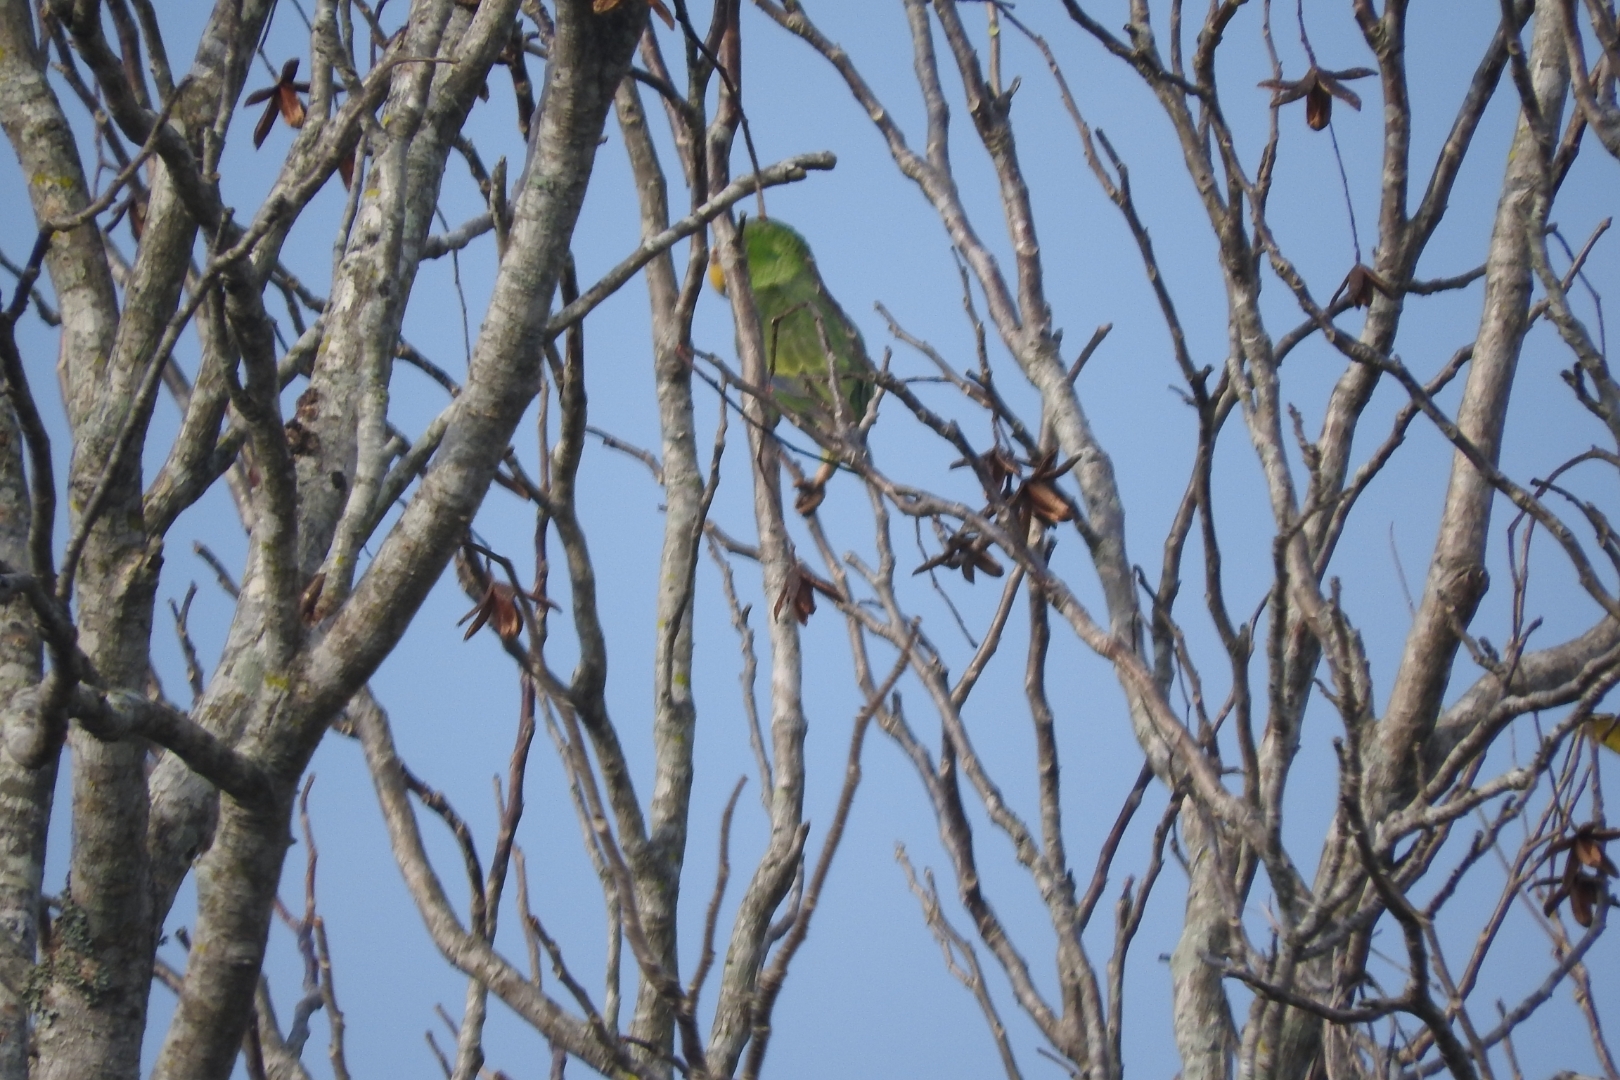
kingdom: Animalia
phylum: Chordata
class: Aves
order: Psittaciformes
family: Psittacidae
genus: Amazona
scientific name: Amazona albifrons
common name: White-fronted amazon
